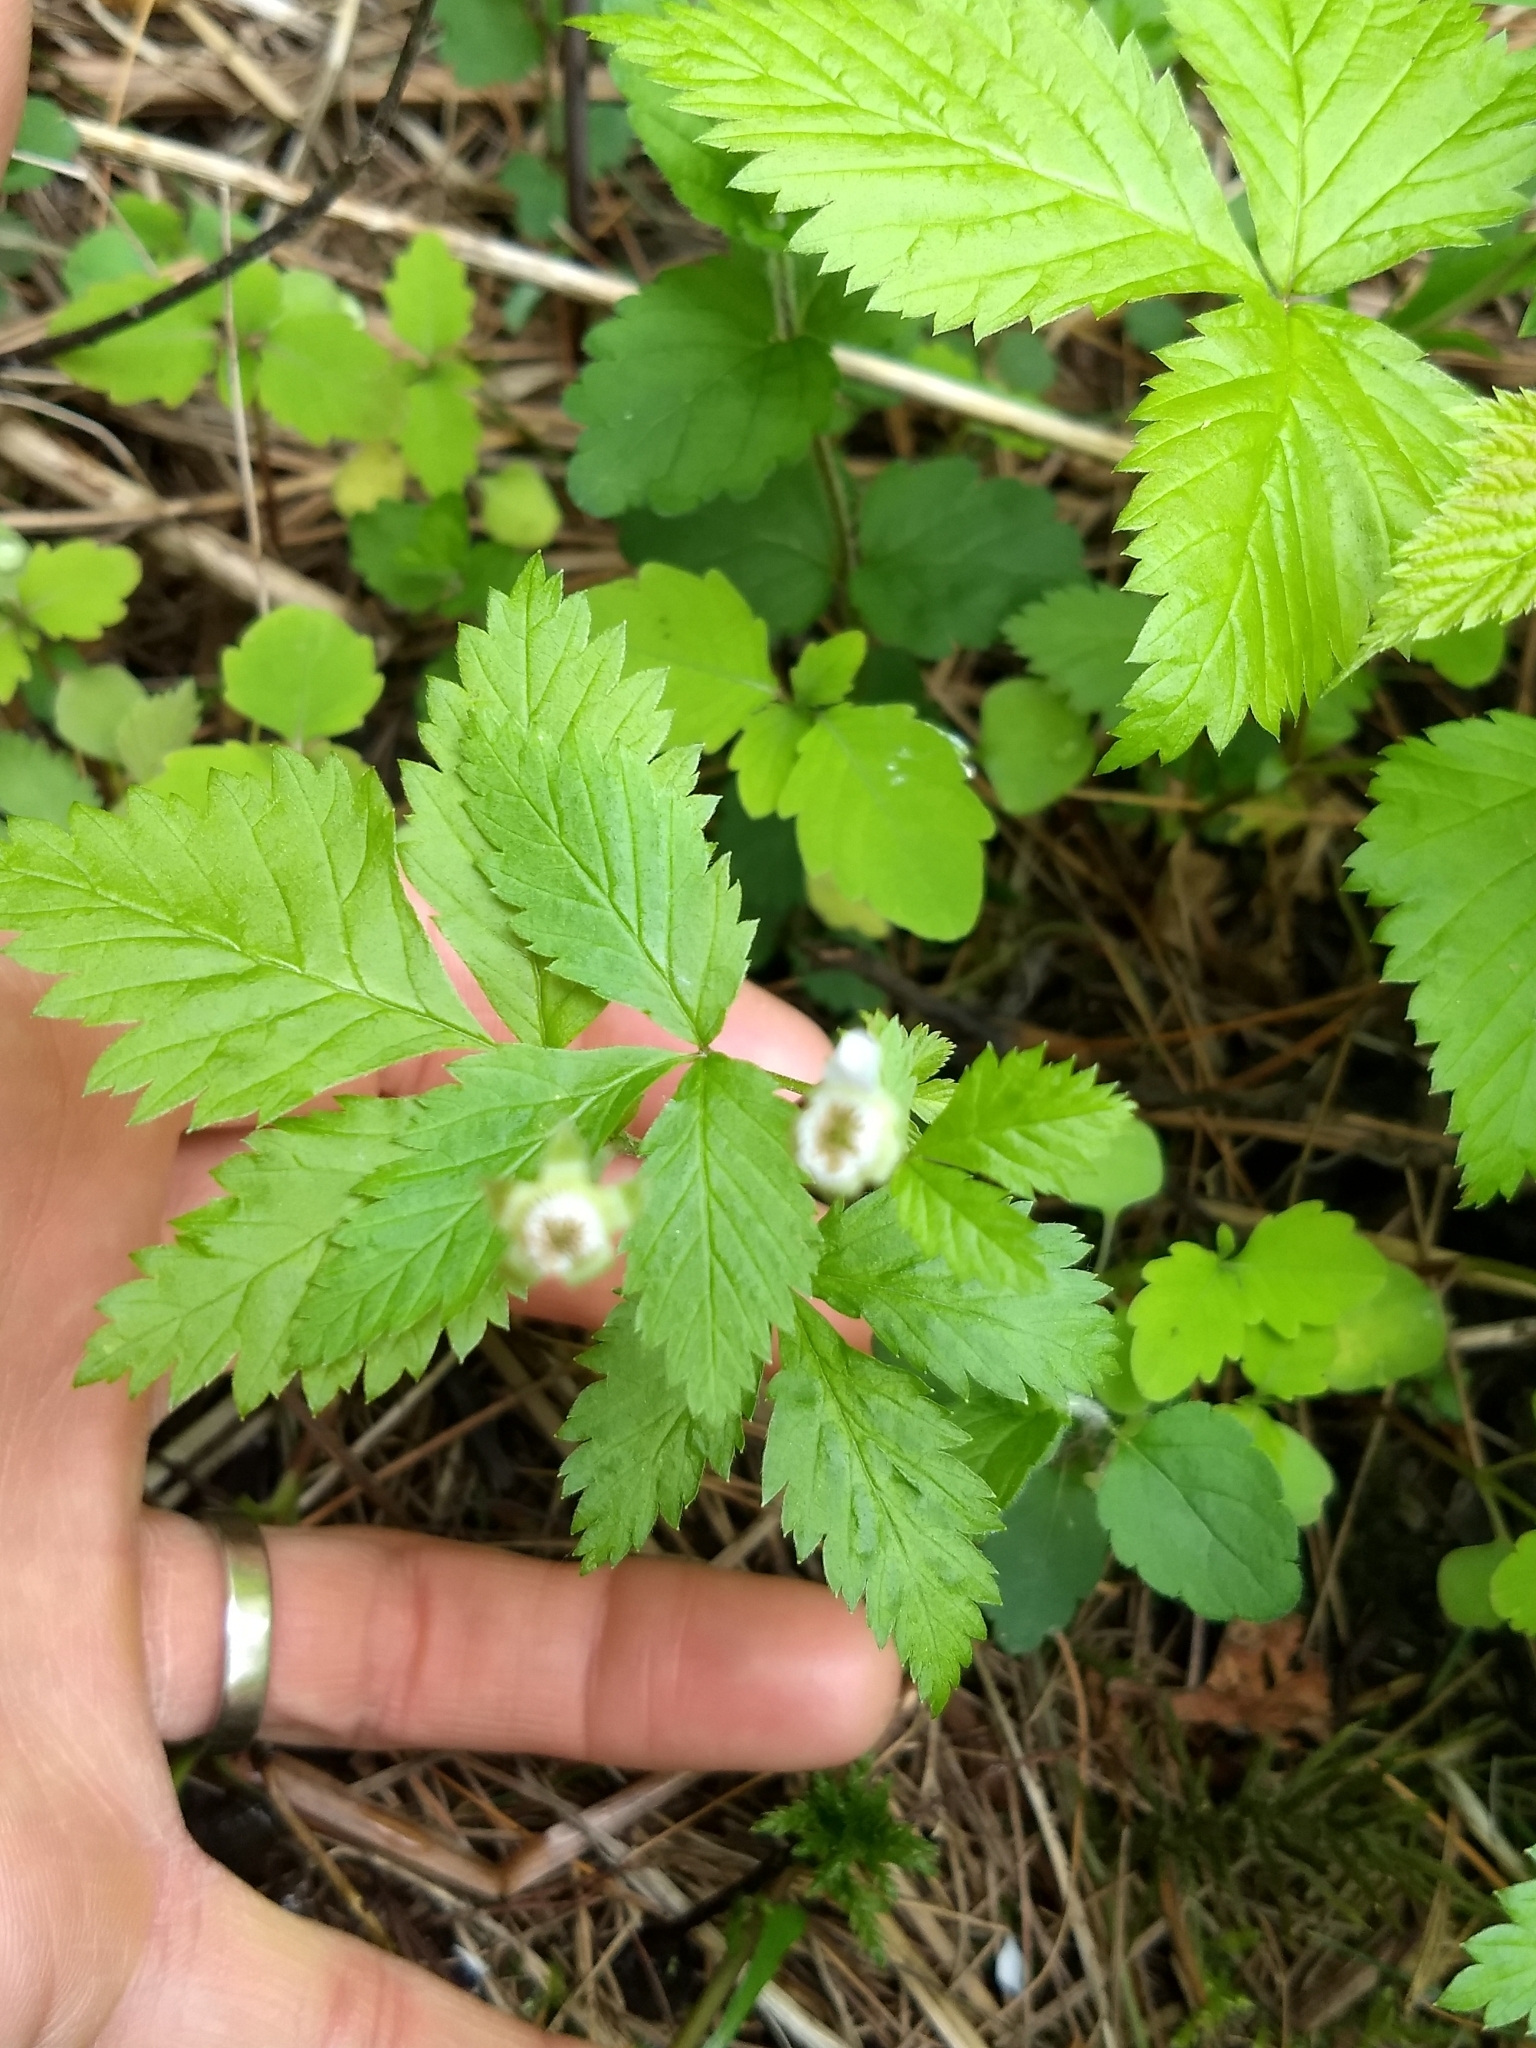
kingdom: Plantae
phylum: Tracheophyta
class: Magnoliopsida
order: Rosales
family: Rosaceae
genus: Rubus
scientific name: Rubus pubescens
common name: Dwarf raspberry
